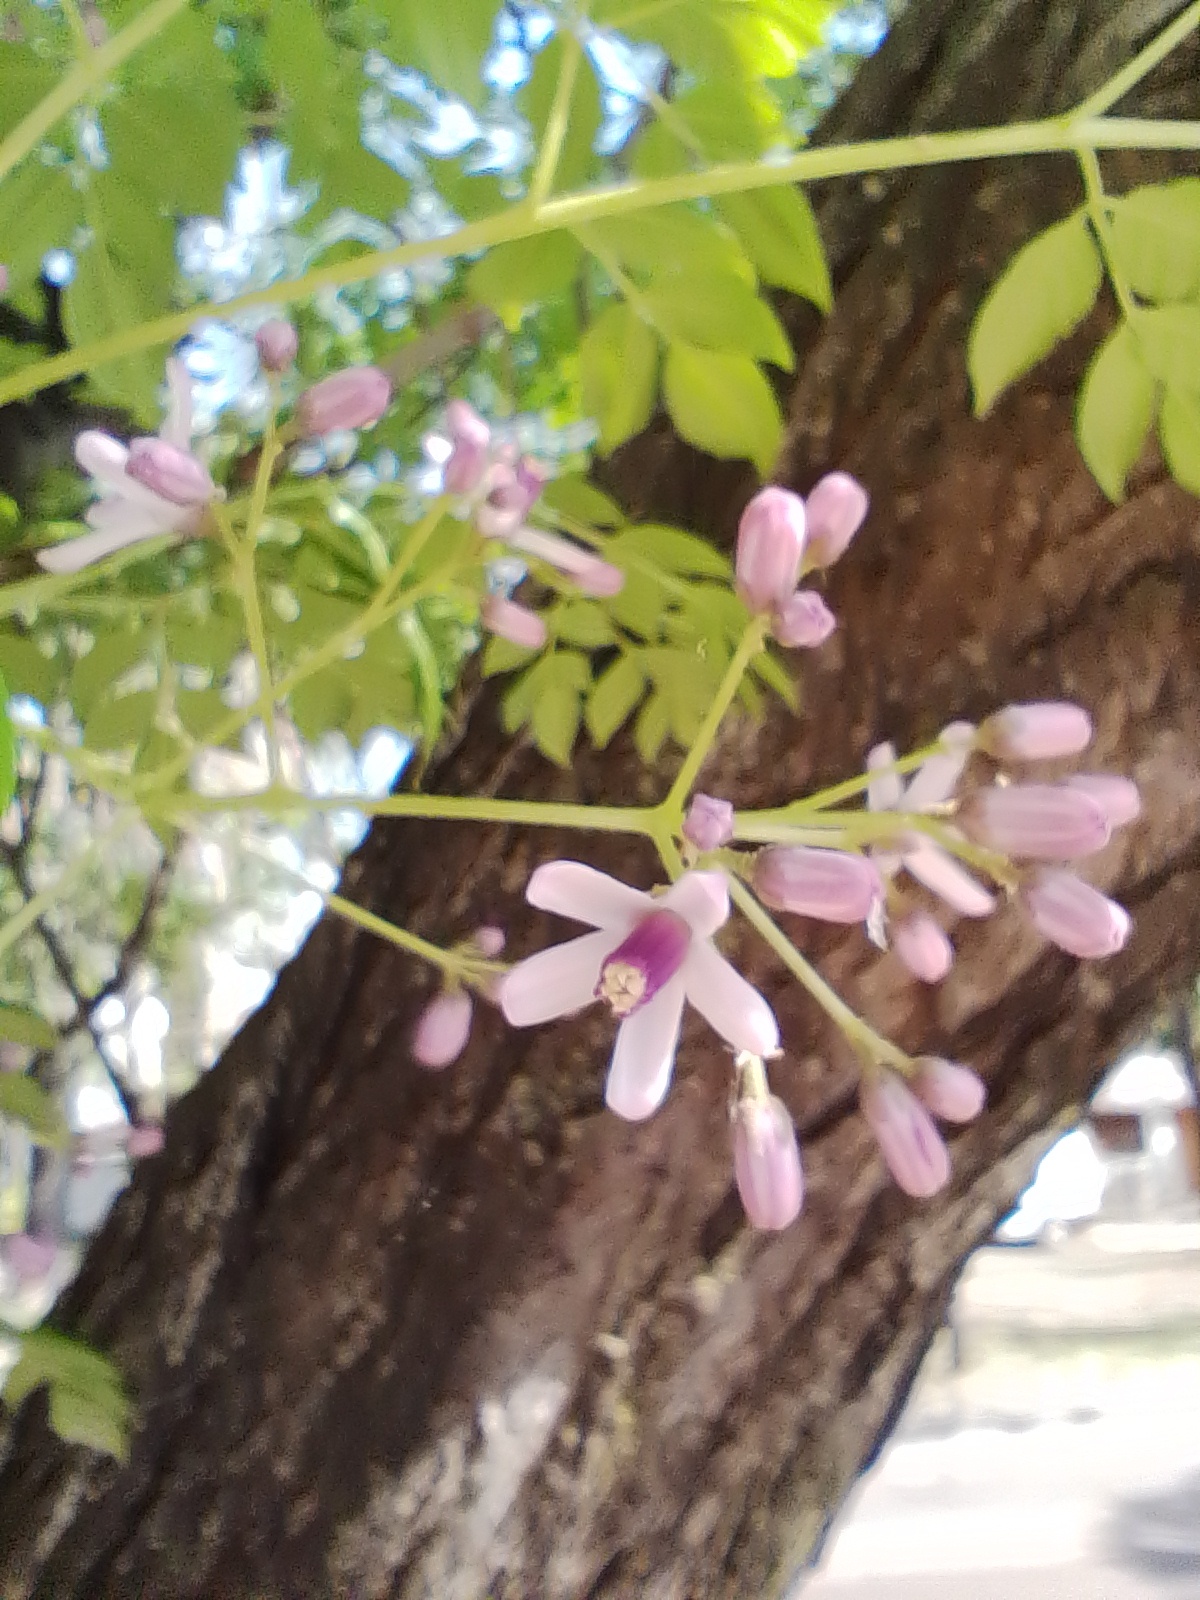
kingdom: Plantae
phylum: Tracheophyta
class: Magnoliopsida
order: Sapindales
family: Meliaceae
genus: Melia
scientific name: Melia azedarach
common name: Chinaberrytree
